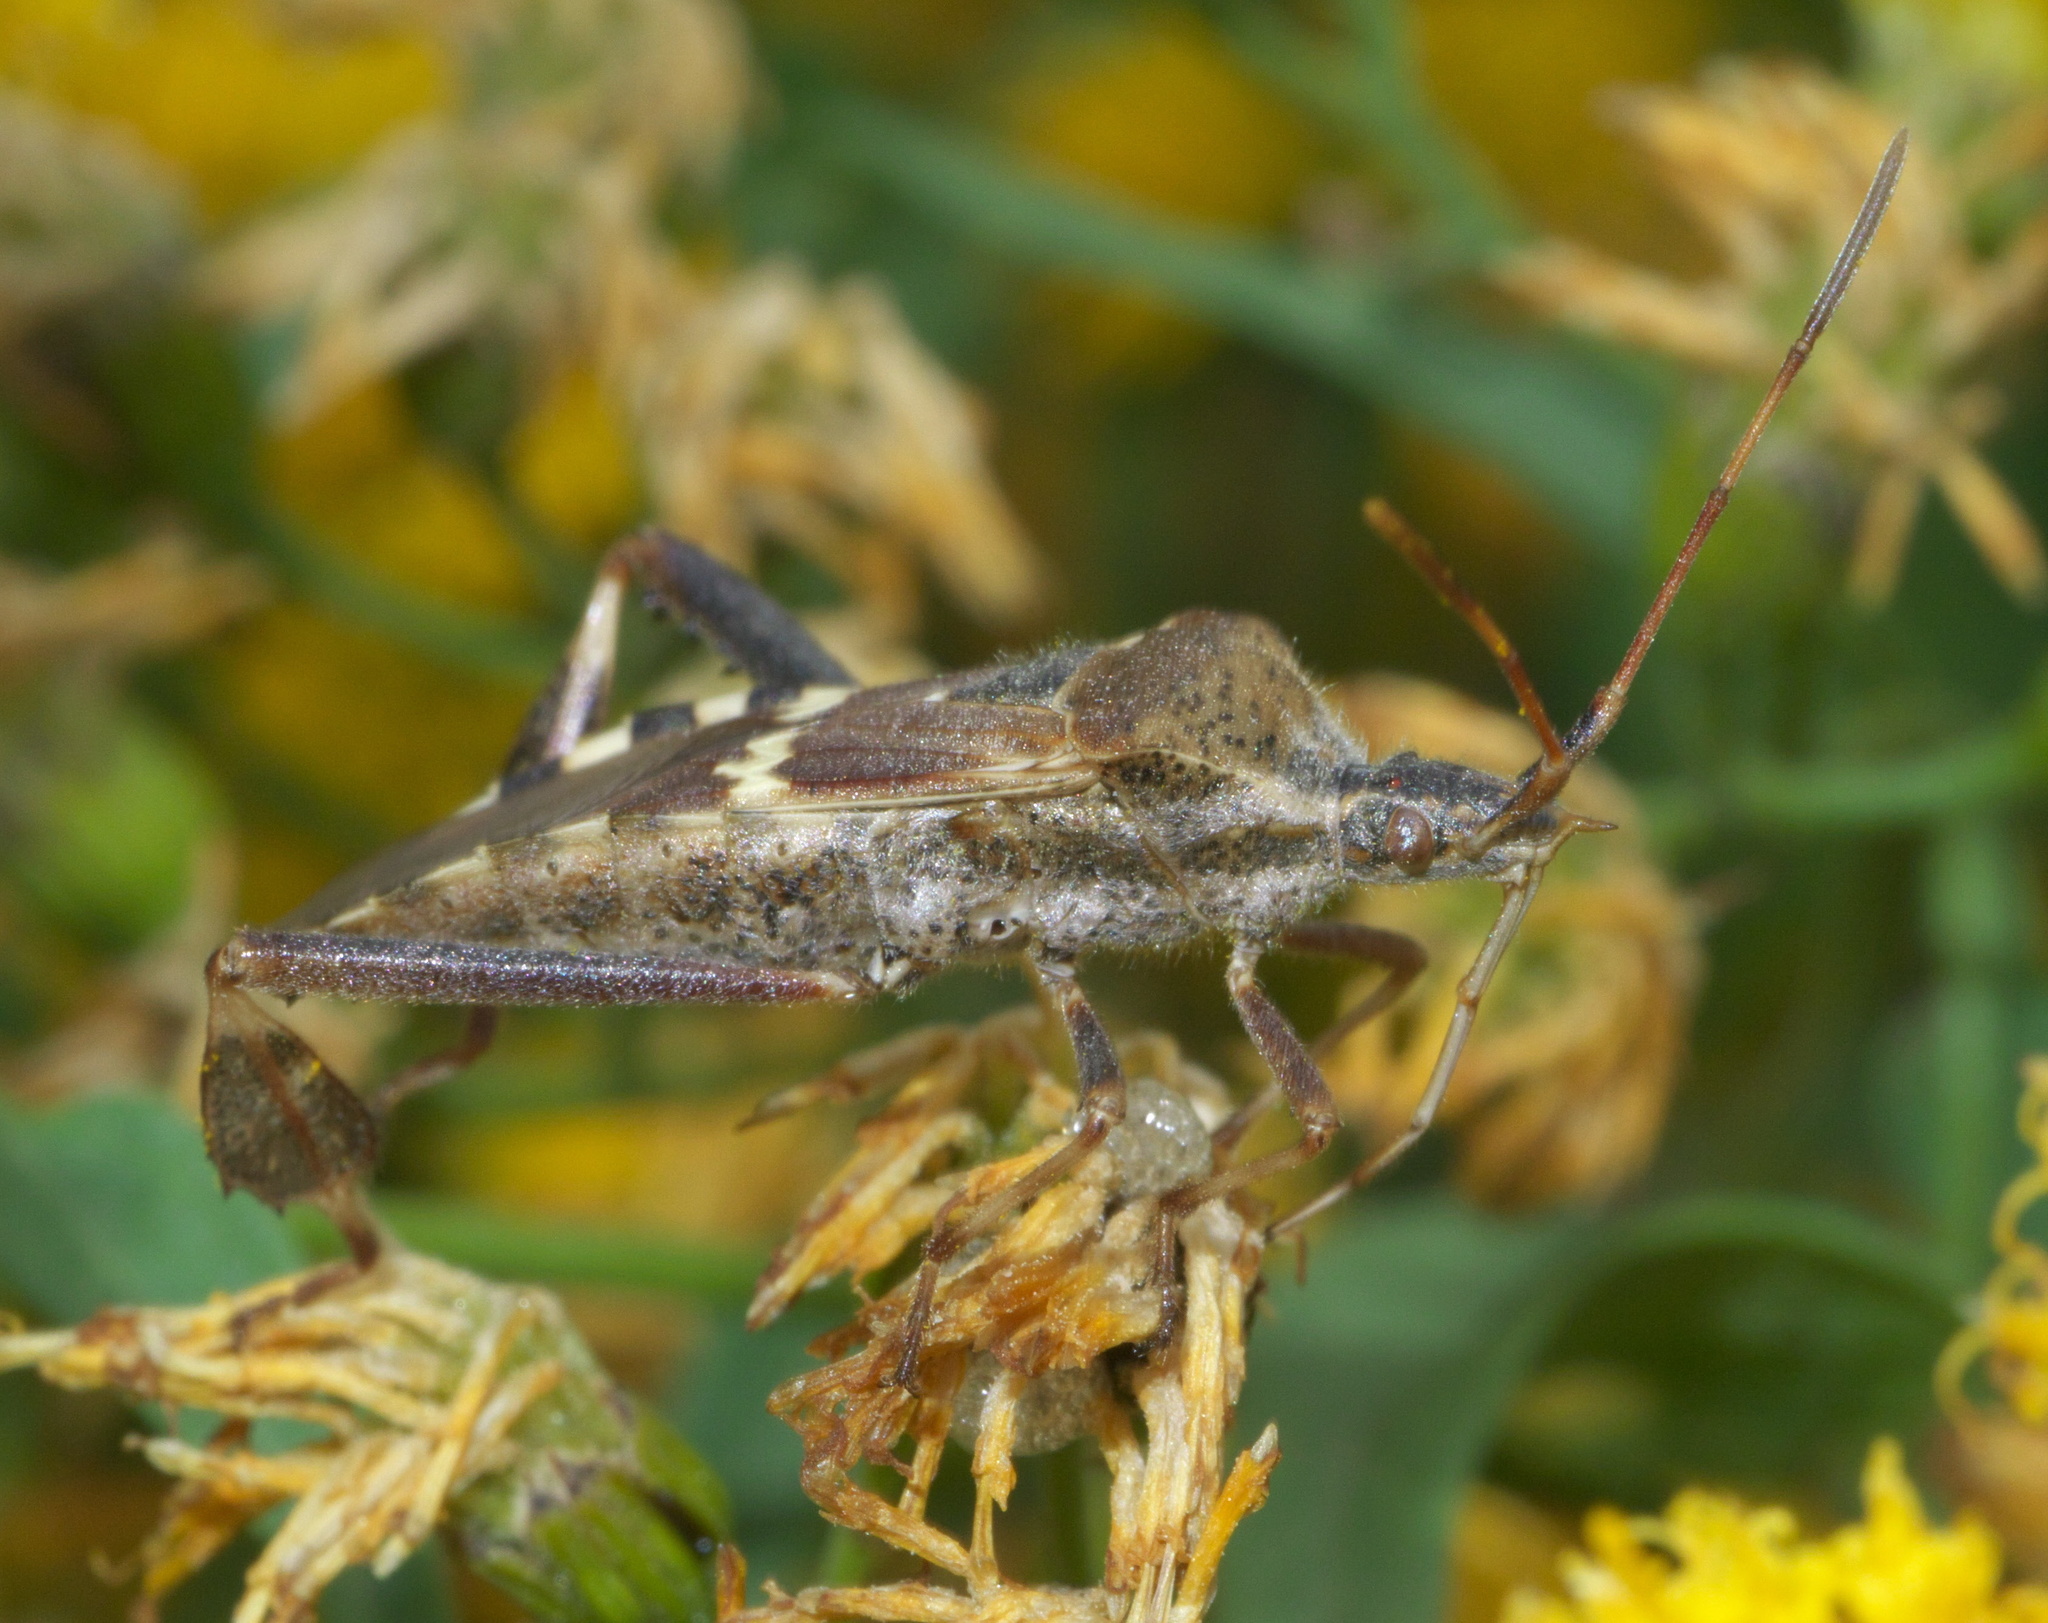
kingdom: Animalia
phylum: Arthropoda
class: Insecta
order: Hemiptera
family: Coreidae
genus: Leptoglossus
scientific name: Leptoglossus clypealis
